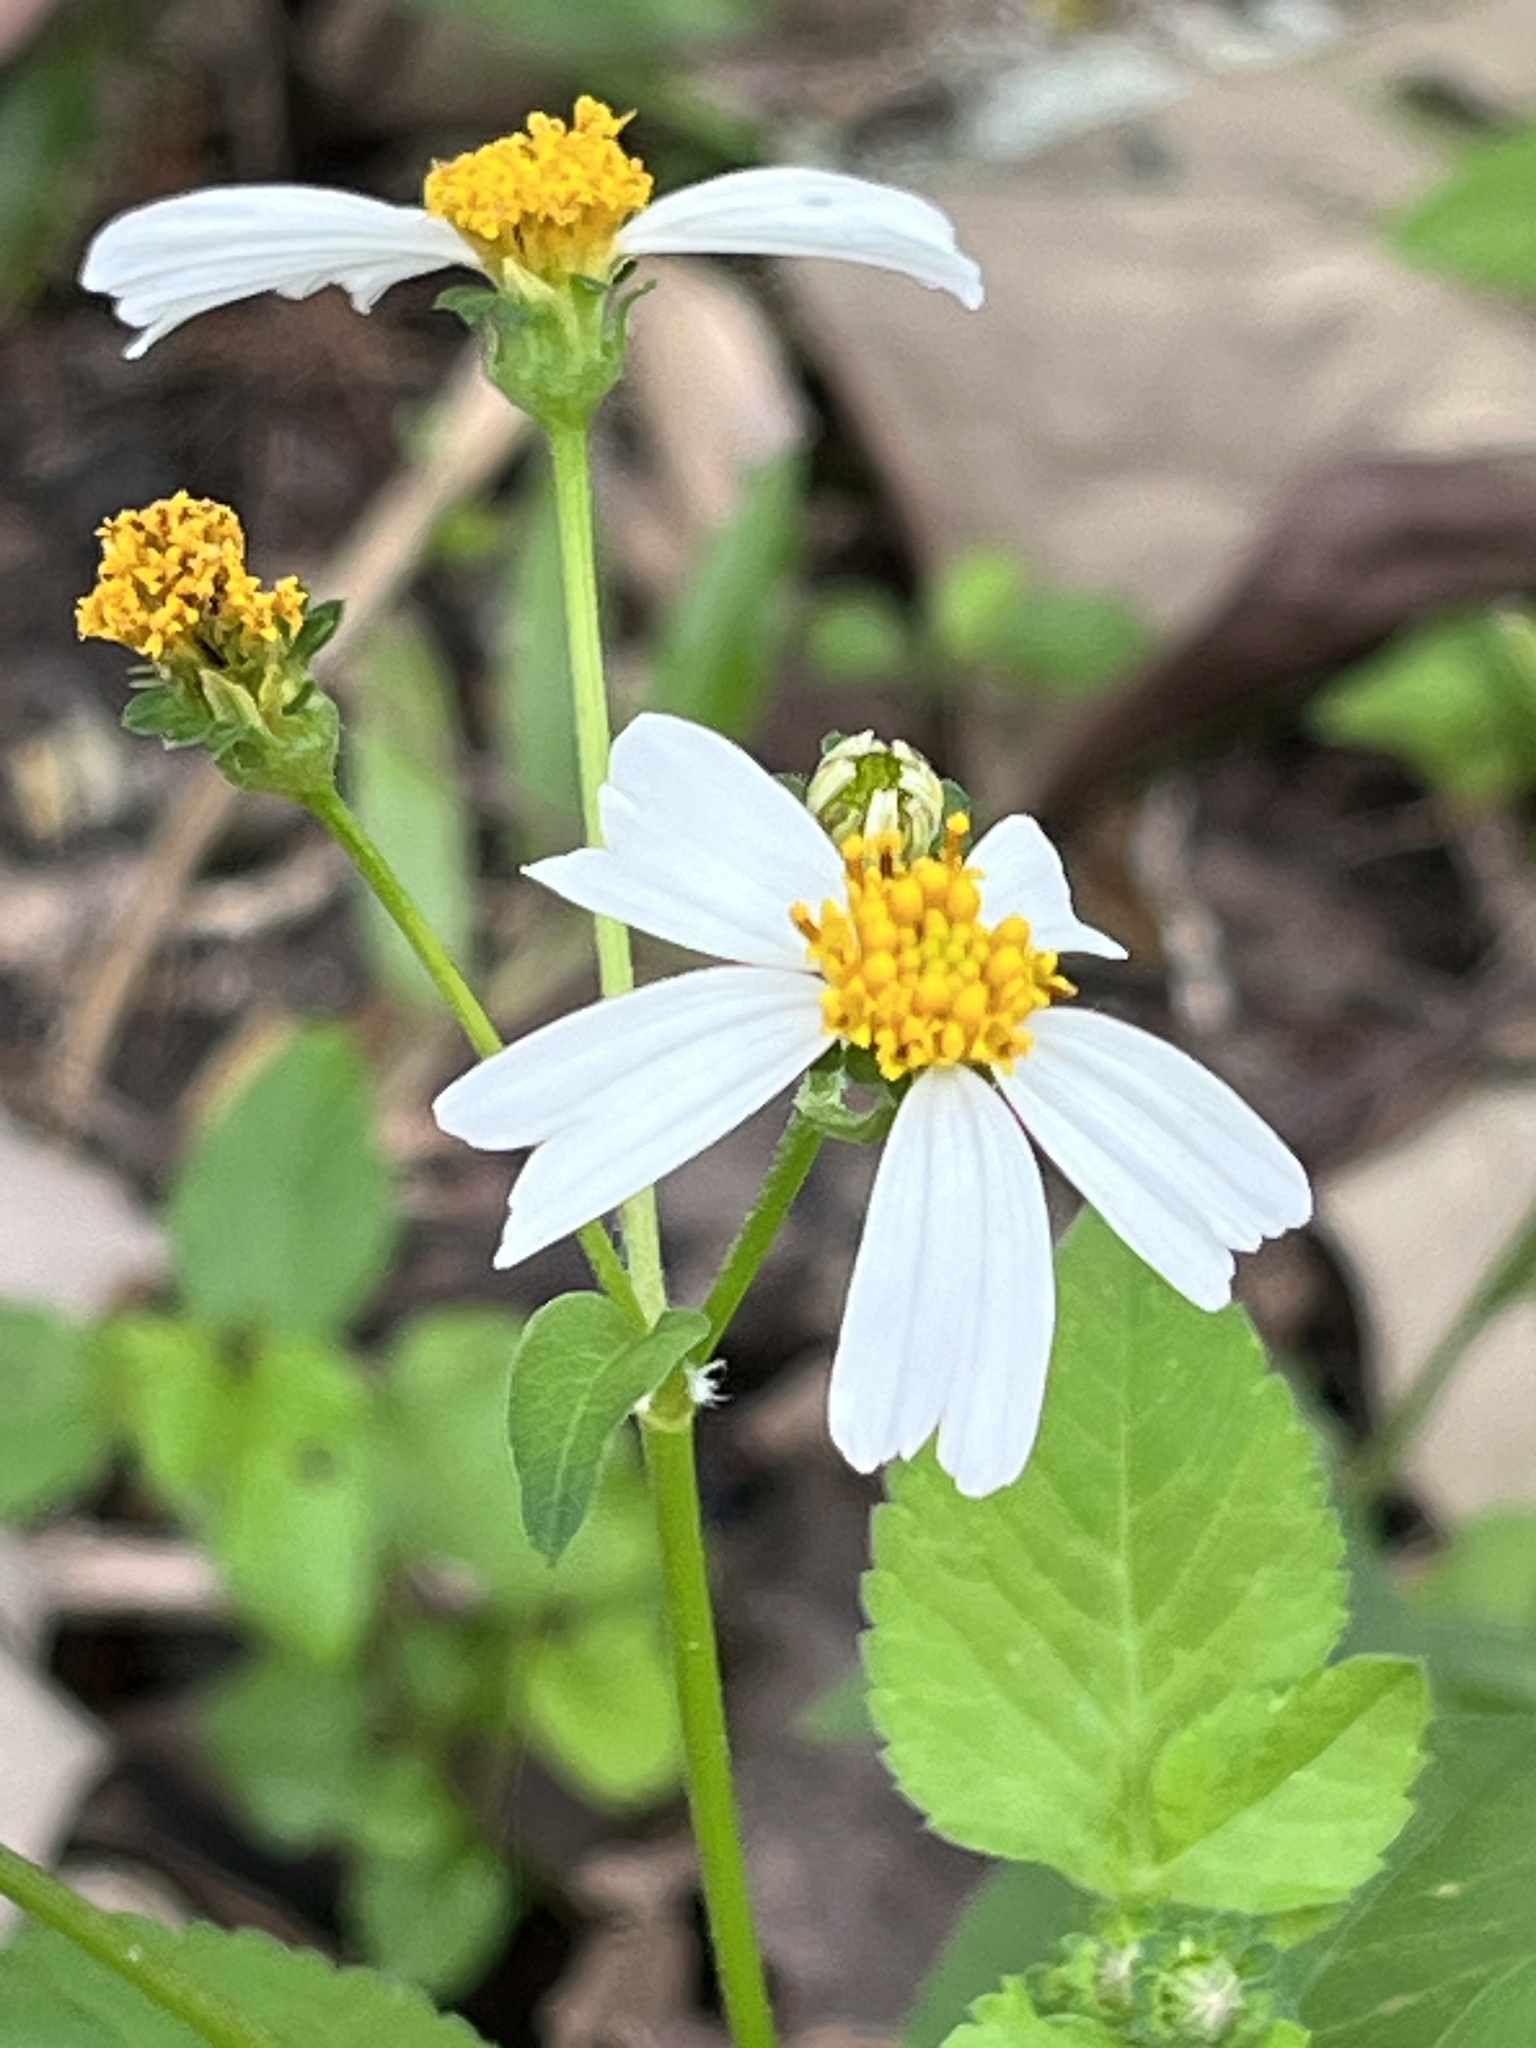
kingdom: Plantae
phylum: Tracheophyta
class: Magnoliopsida
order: Asterales
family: Asteraceae
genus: Bidens
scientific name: Bidens alba
